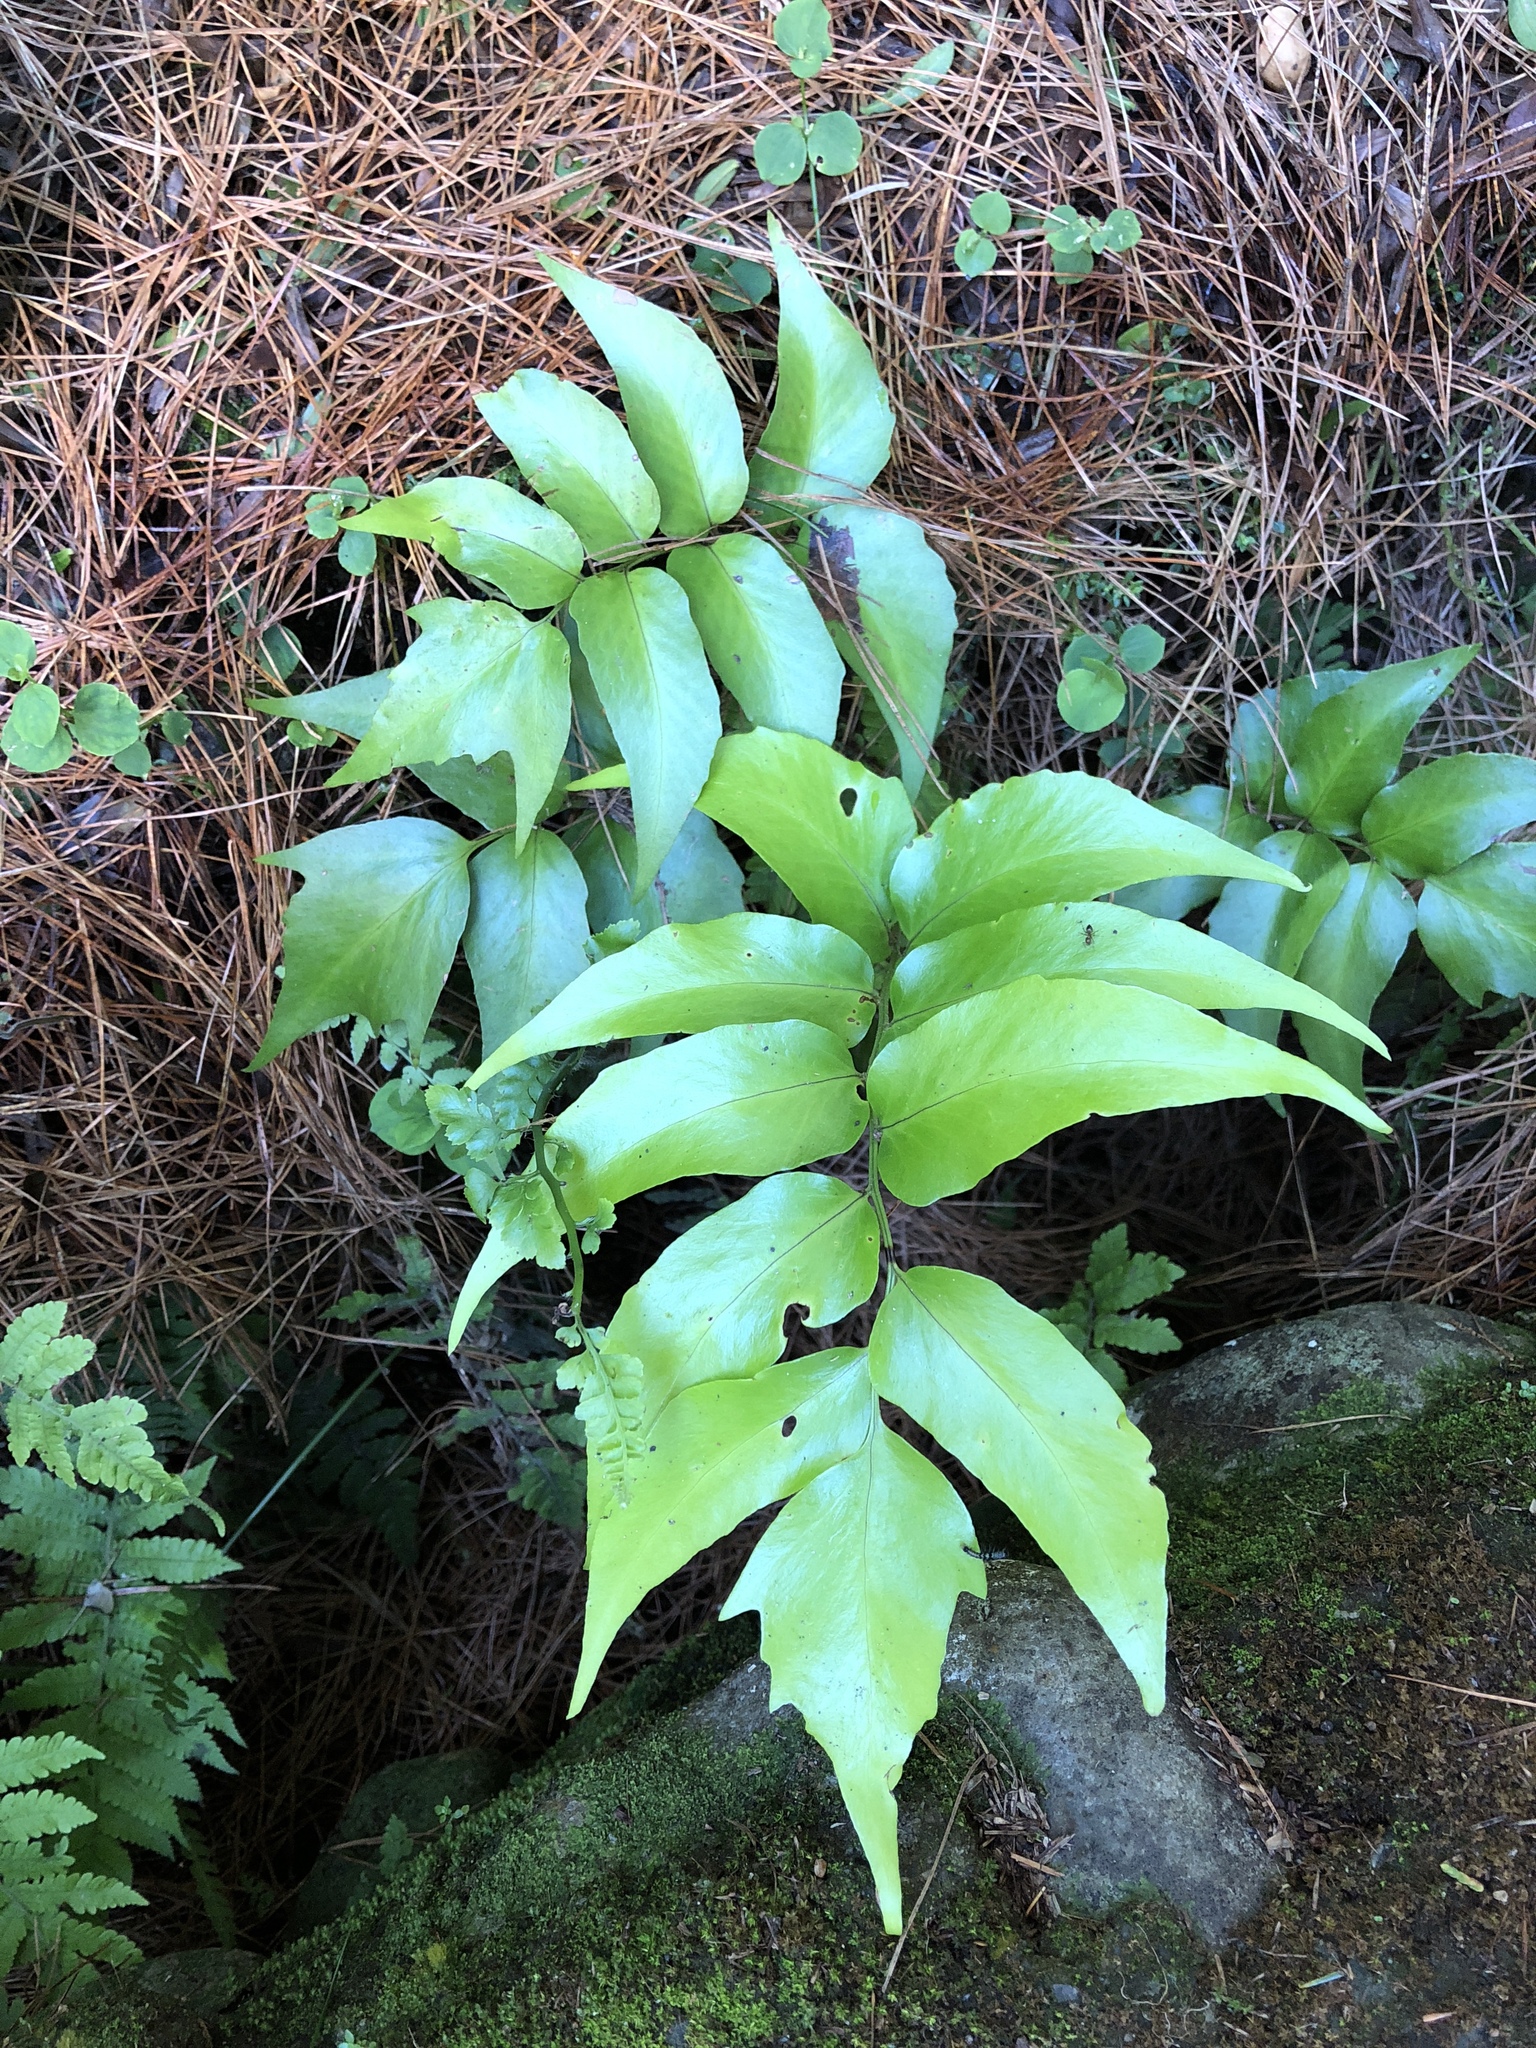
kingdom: Plantae
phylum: Tracheophyta
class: Polypodiopsida
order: Polypodiales
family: Dryopteridaceae
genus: Cyrtomium
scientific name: Cyrtomium falcatum
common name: House holly-fern
